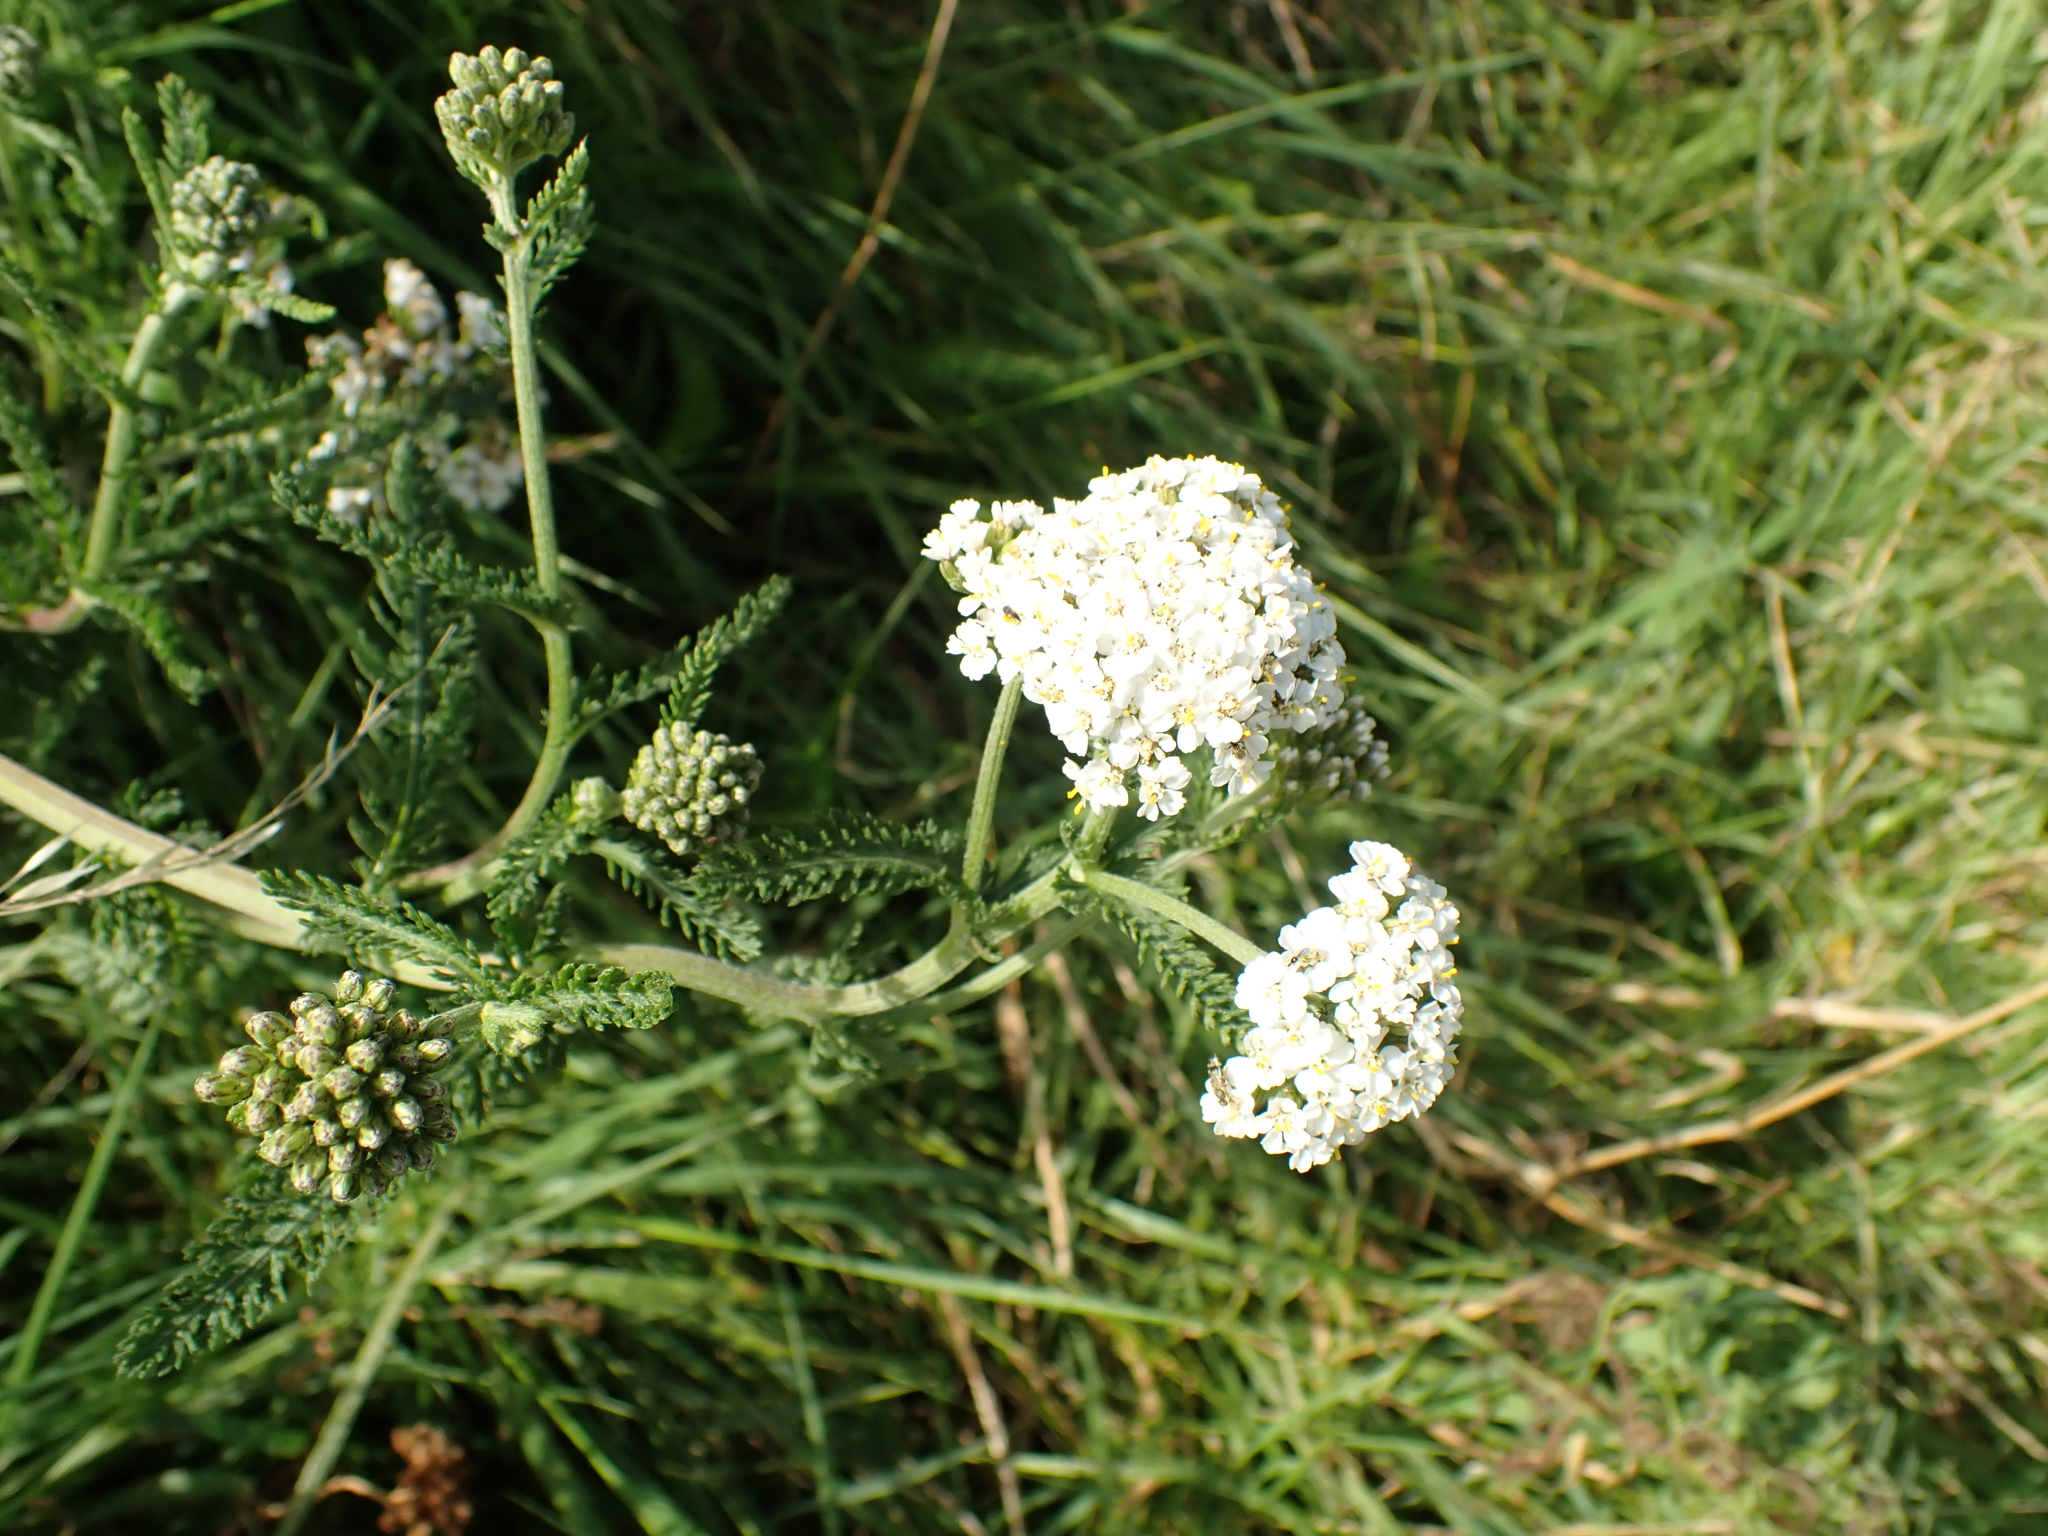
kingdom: Plantae
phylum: Tracheophyta
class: Magnoliopsida
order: Asterales
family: Asteraceae
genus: Achillea
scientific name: Achillea millefolium
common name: Yarrow
